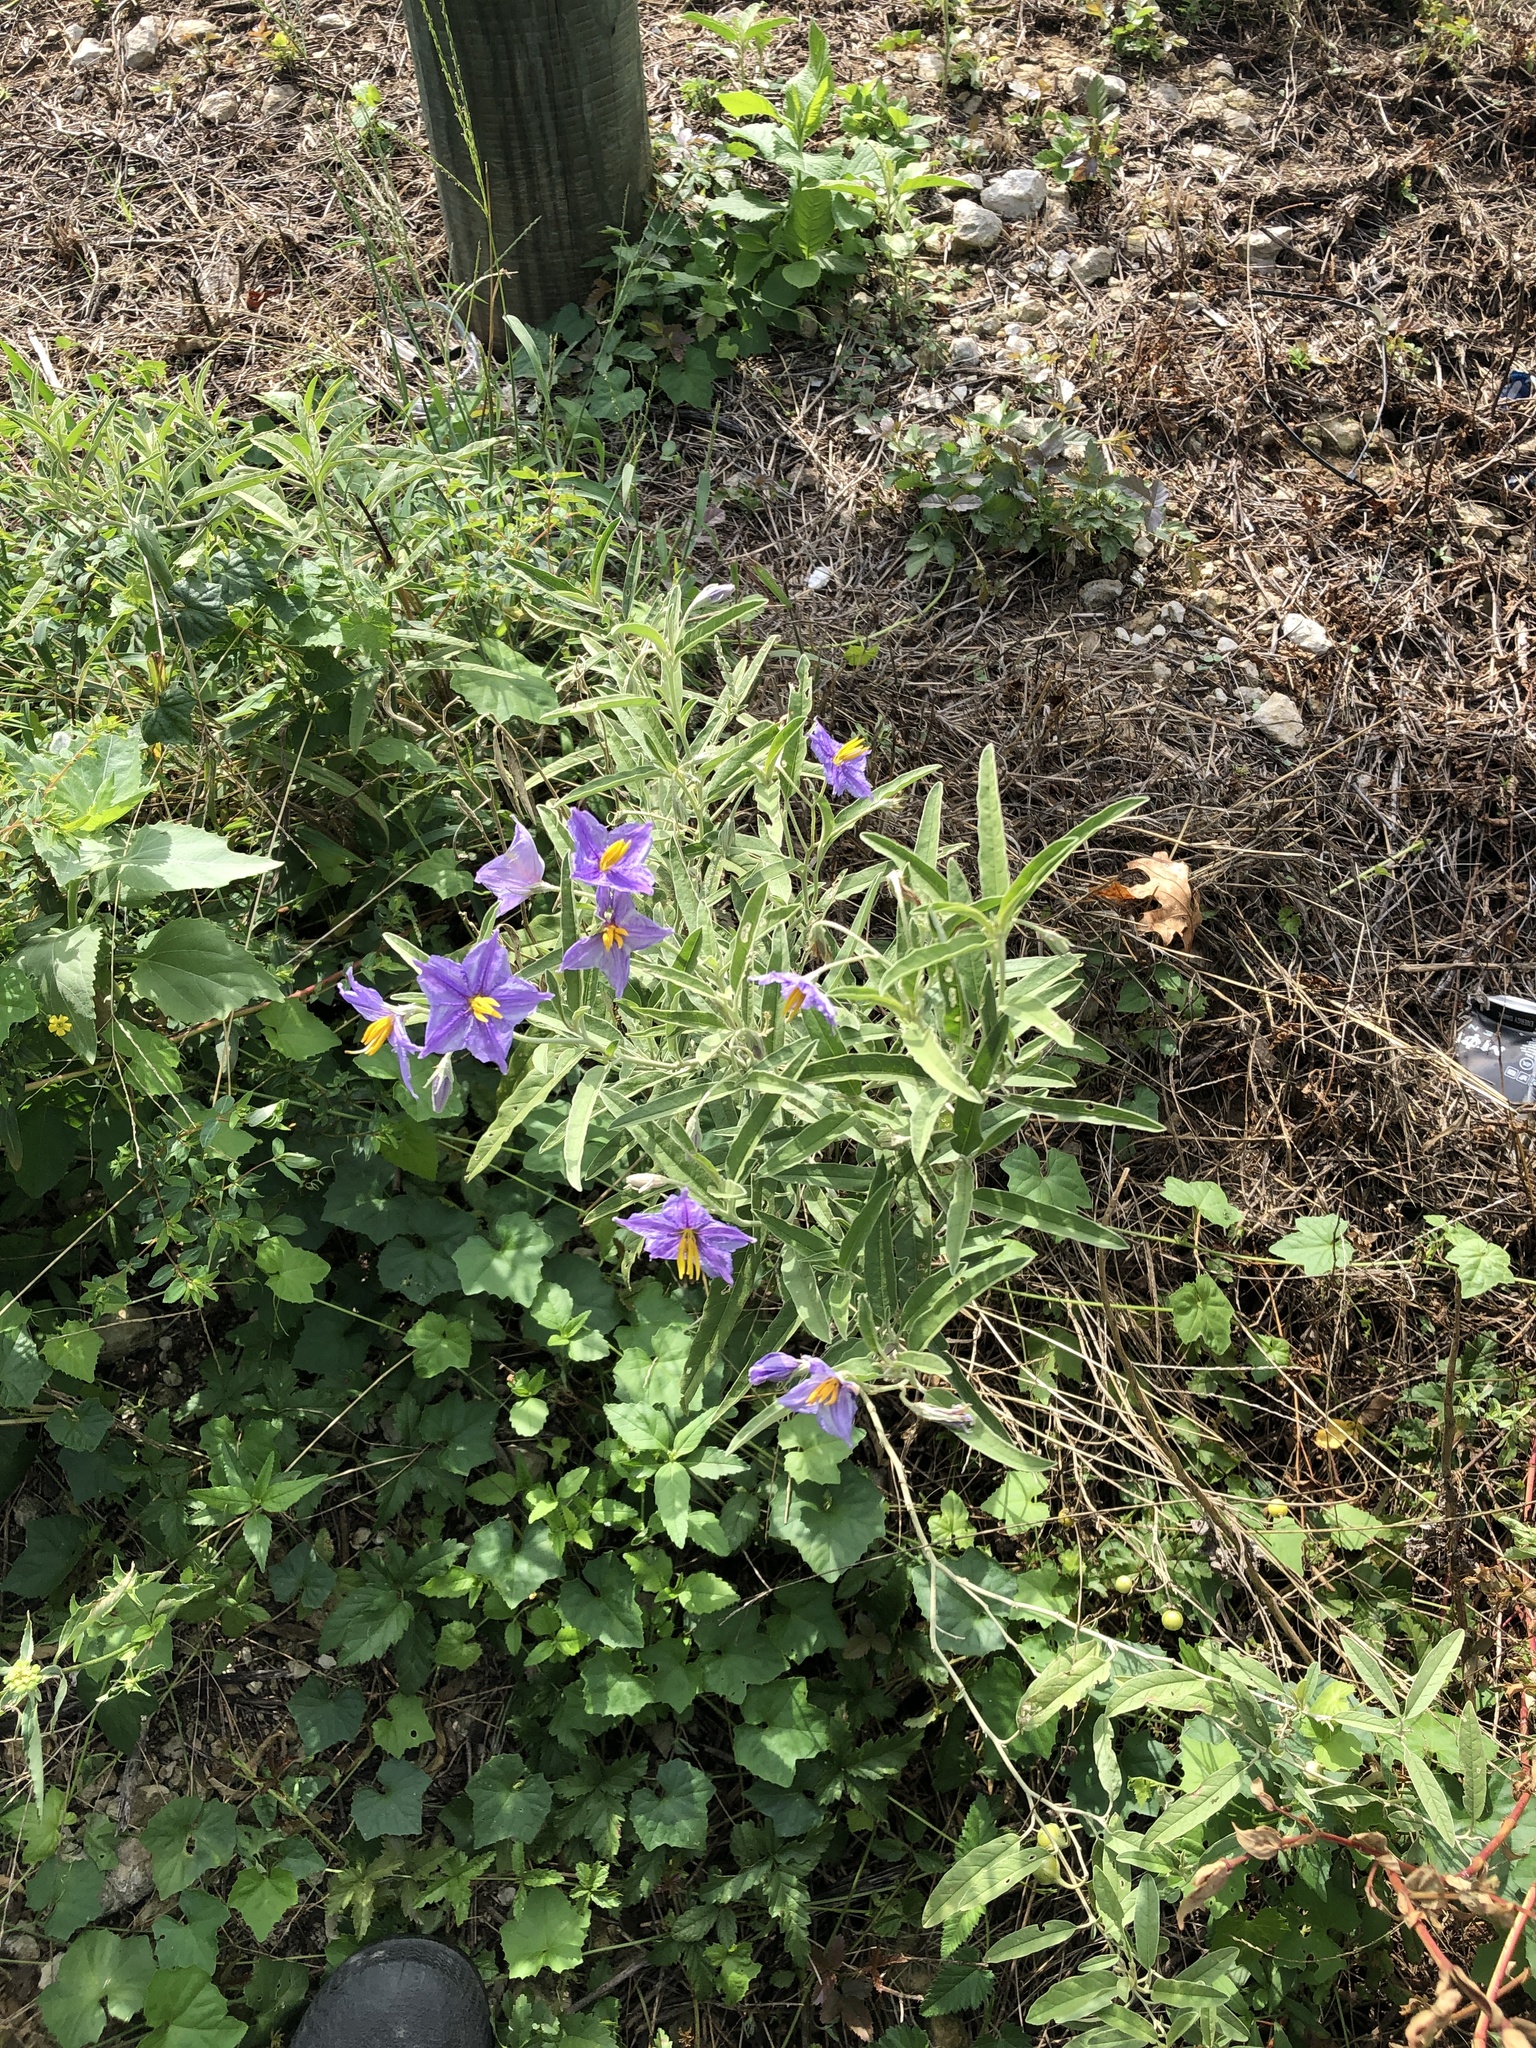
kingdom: Plantae
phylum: Tracheophyta
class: Magnoliopsida
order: Solanales
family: Solanaceae
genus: Solanum
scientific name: Solanum elaeagnifolium
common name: Silverleaf nightshade
